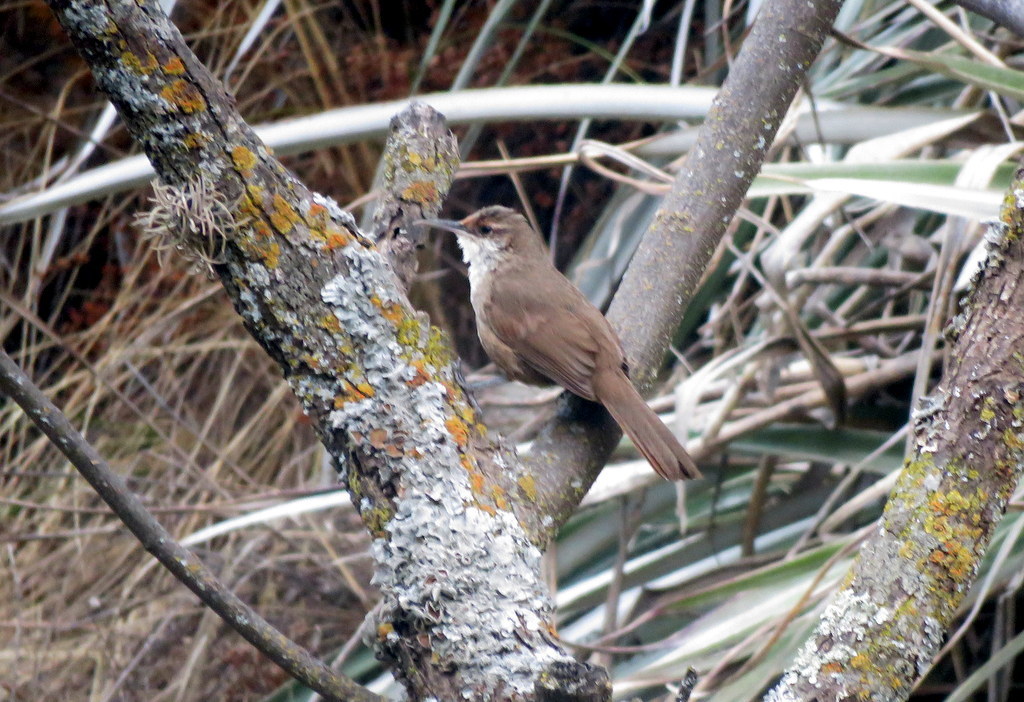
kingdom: Animalia
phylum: Chordata
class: Aves
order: Passeriformes
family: Furnariidae
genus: Upucerthia
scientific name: Upucerthia certhioides
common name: Chaco earthcreeper
